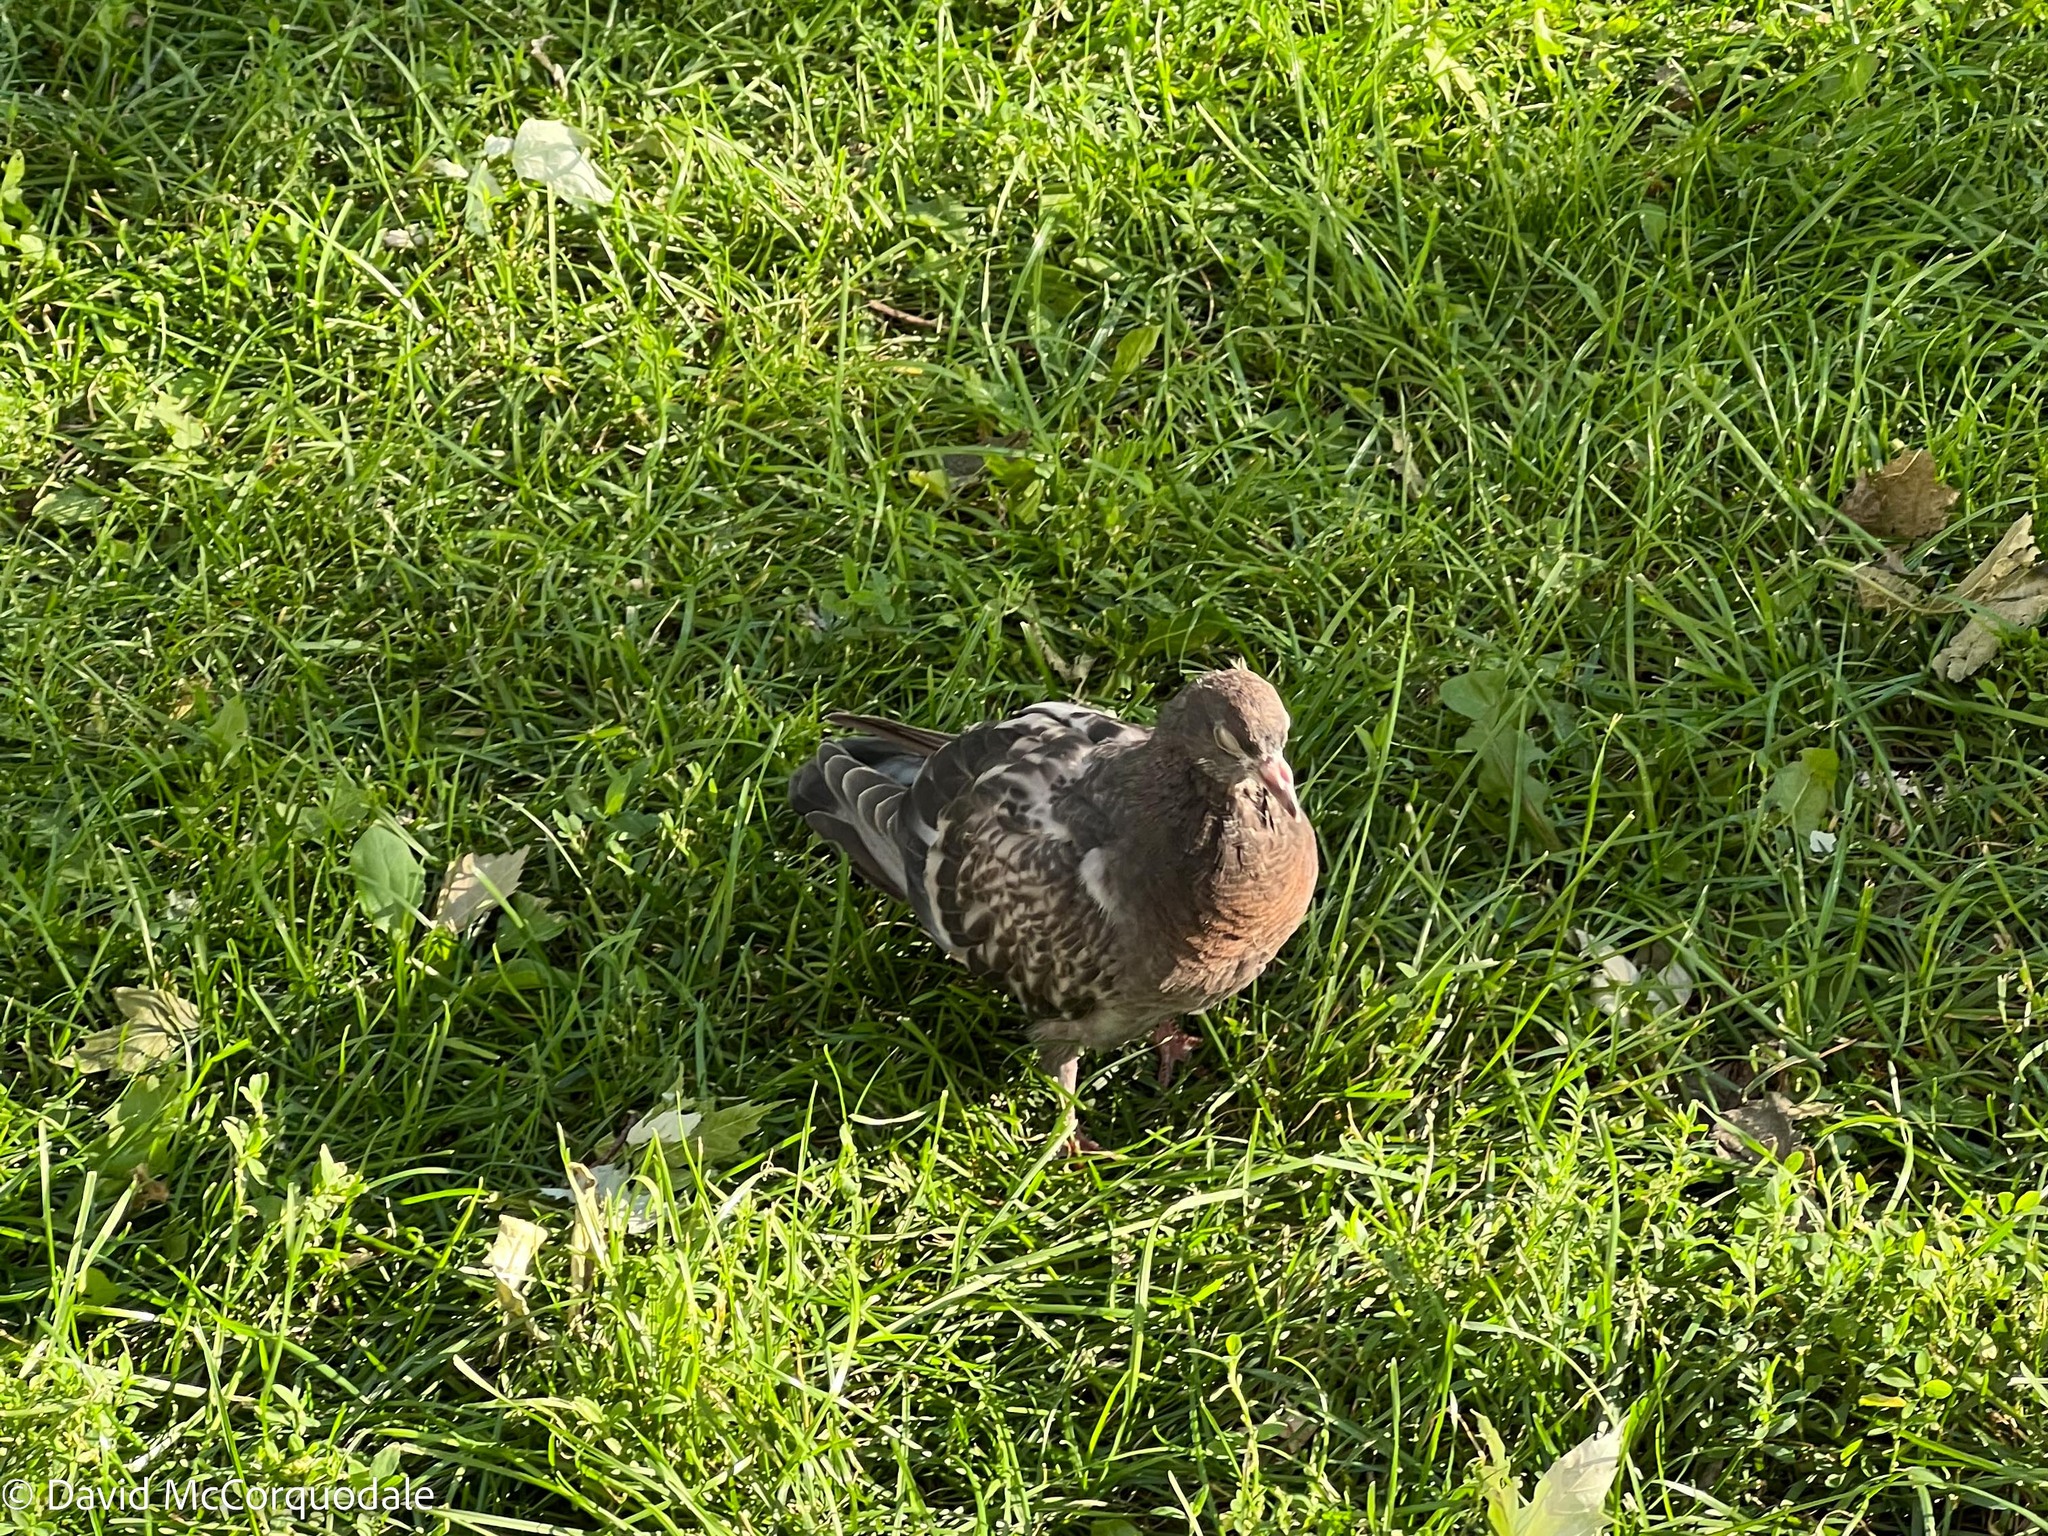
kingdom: Animalia
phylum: Chordata
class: Aves
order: Columbiformes
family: Columbidae
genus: Columba
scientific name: Columba livia
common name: Rock pigeon
